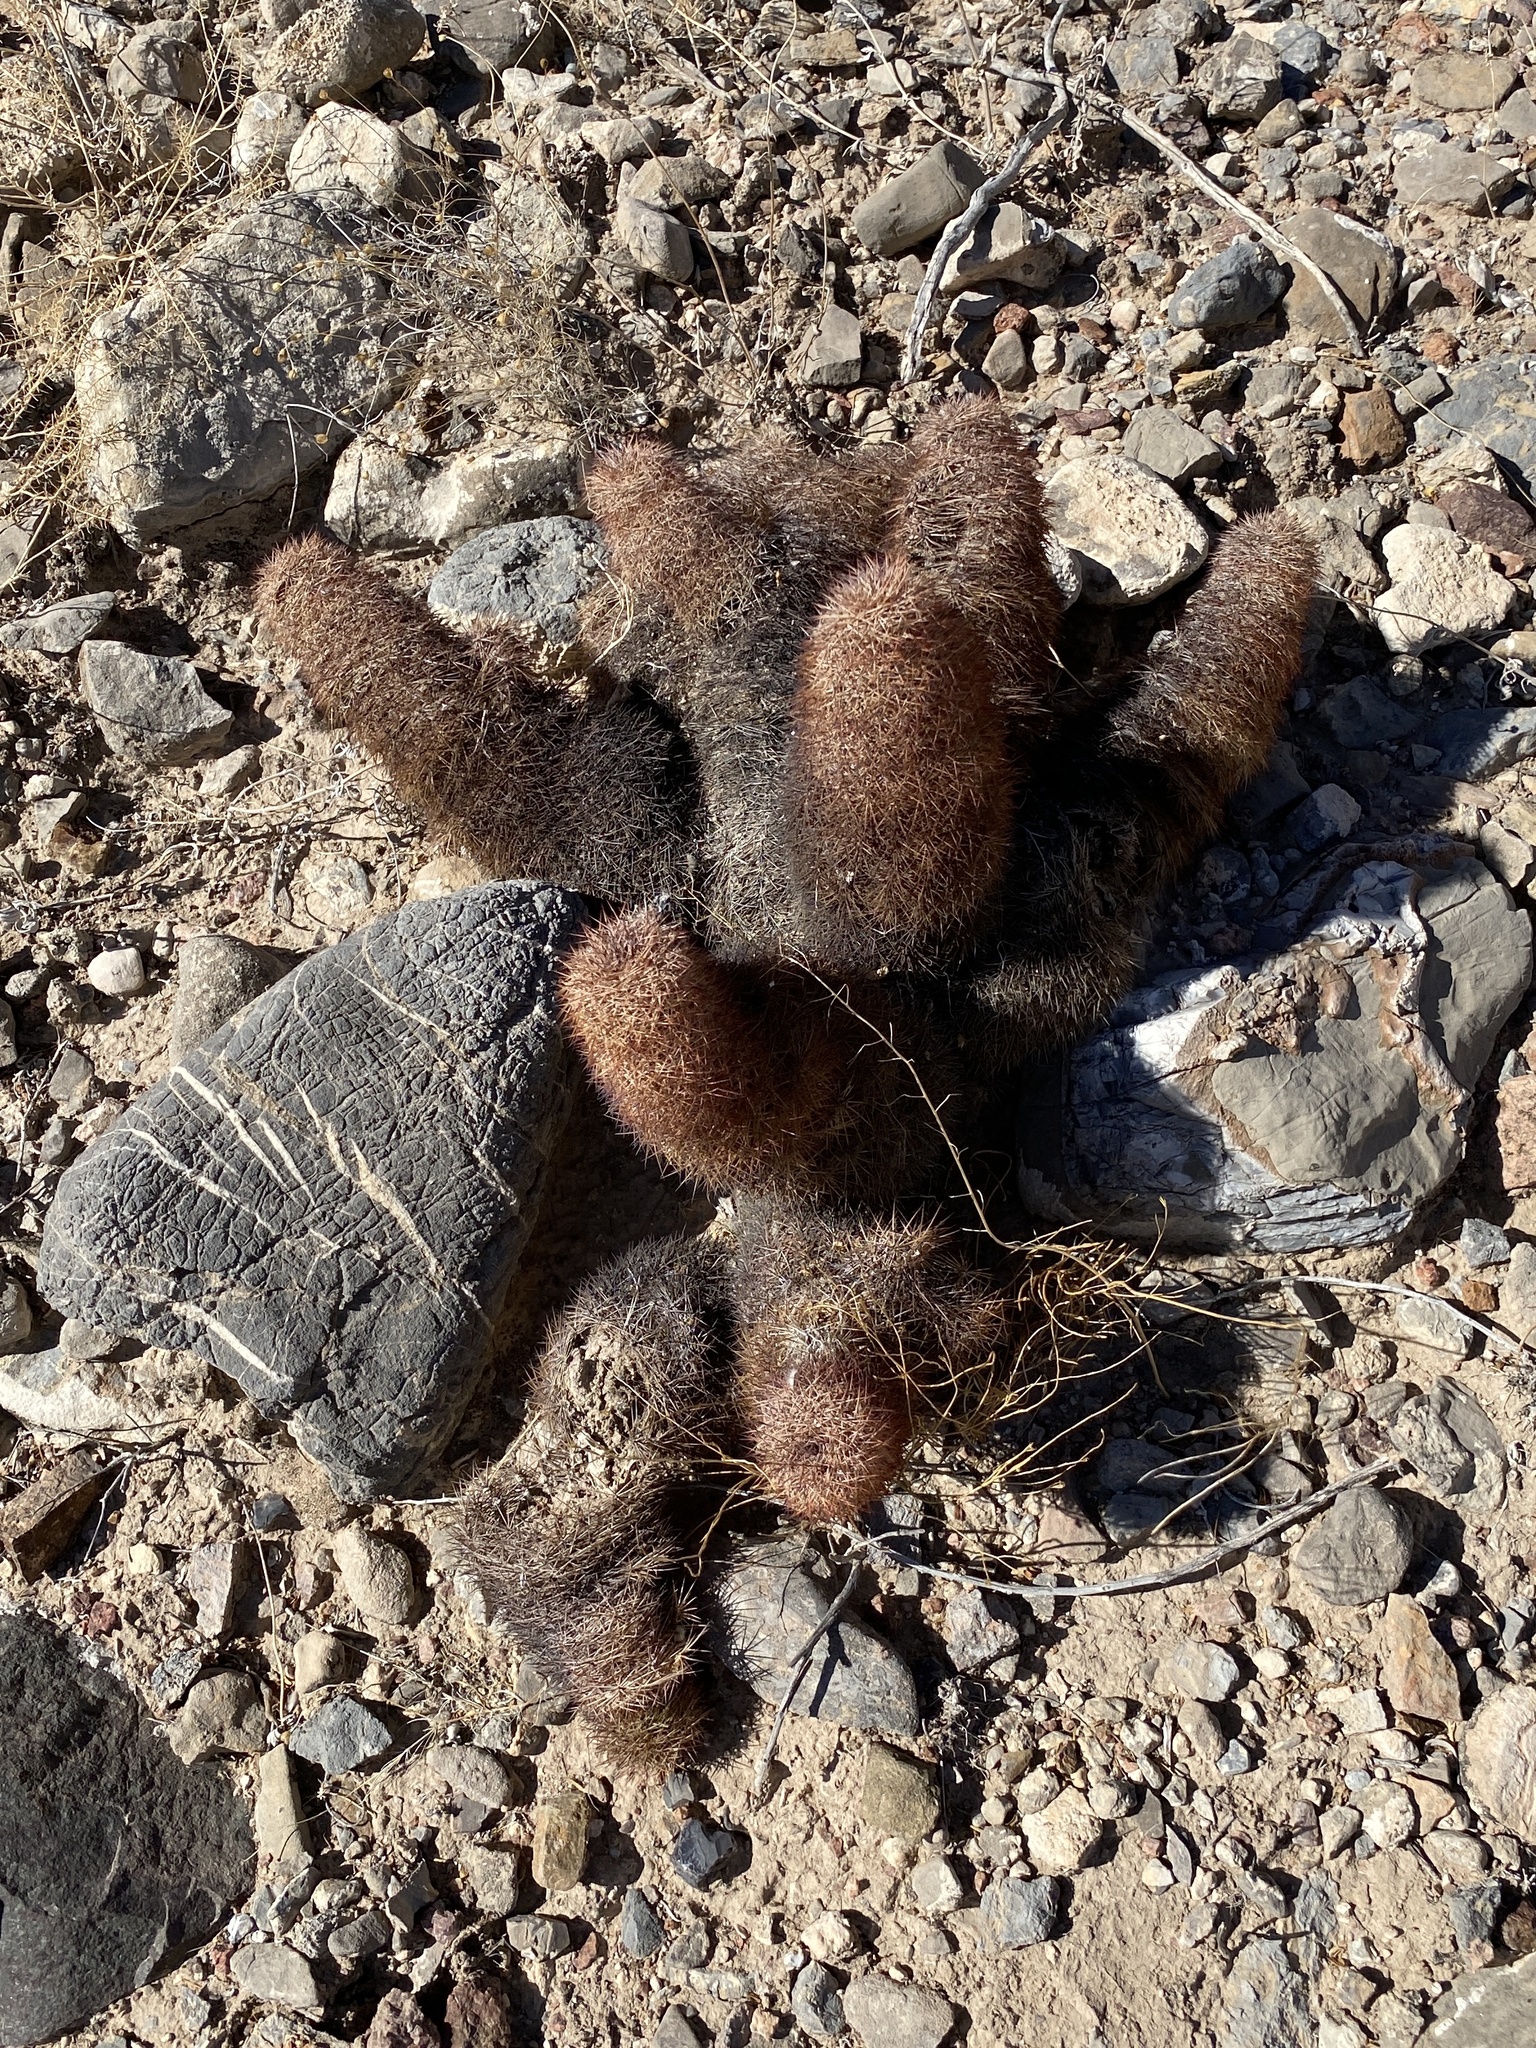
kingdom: Plantae
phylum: Tracheophyta
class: Magnoliopsida
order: Caryophyllales
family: Cactaceae
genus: Echinocereus
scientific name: Echinocereus dasyacanthus
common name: Spiny hedgehog cactus
